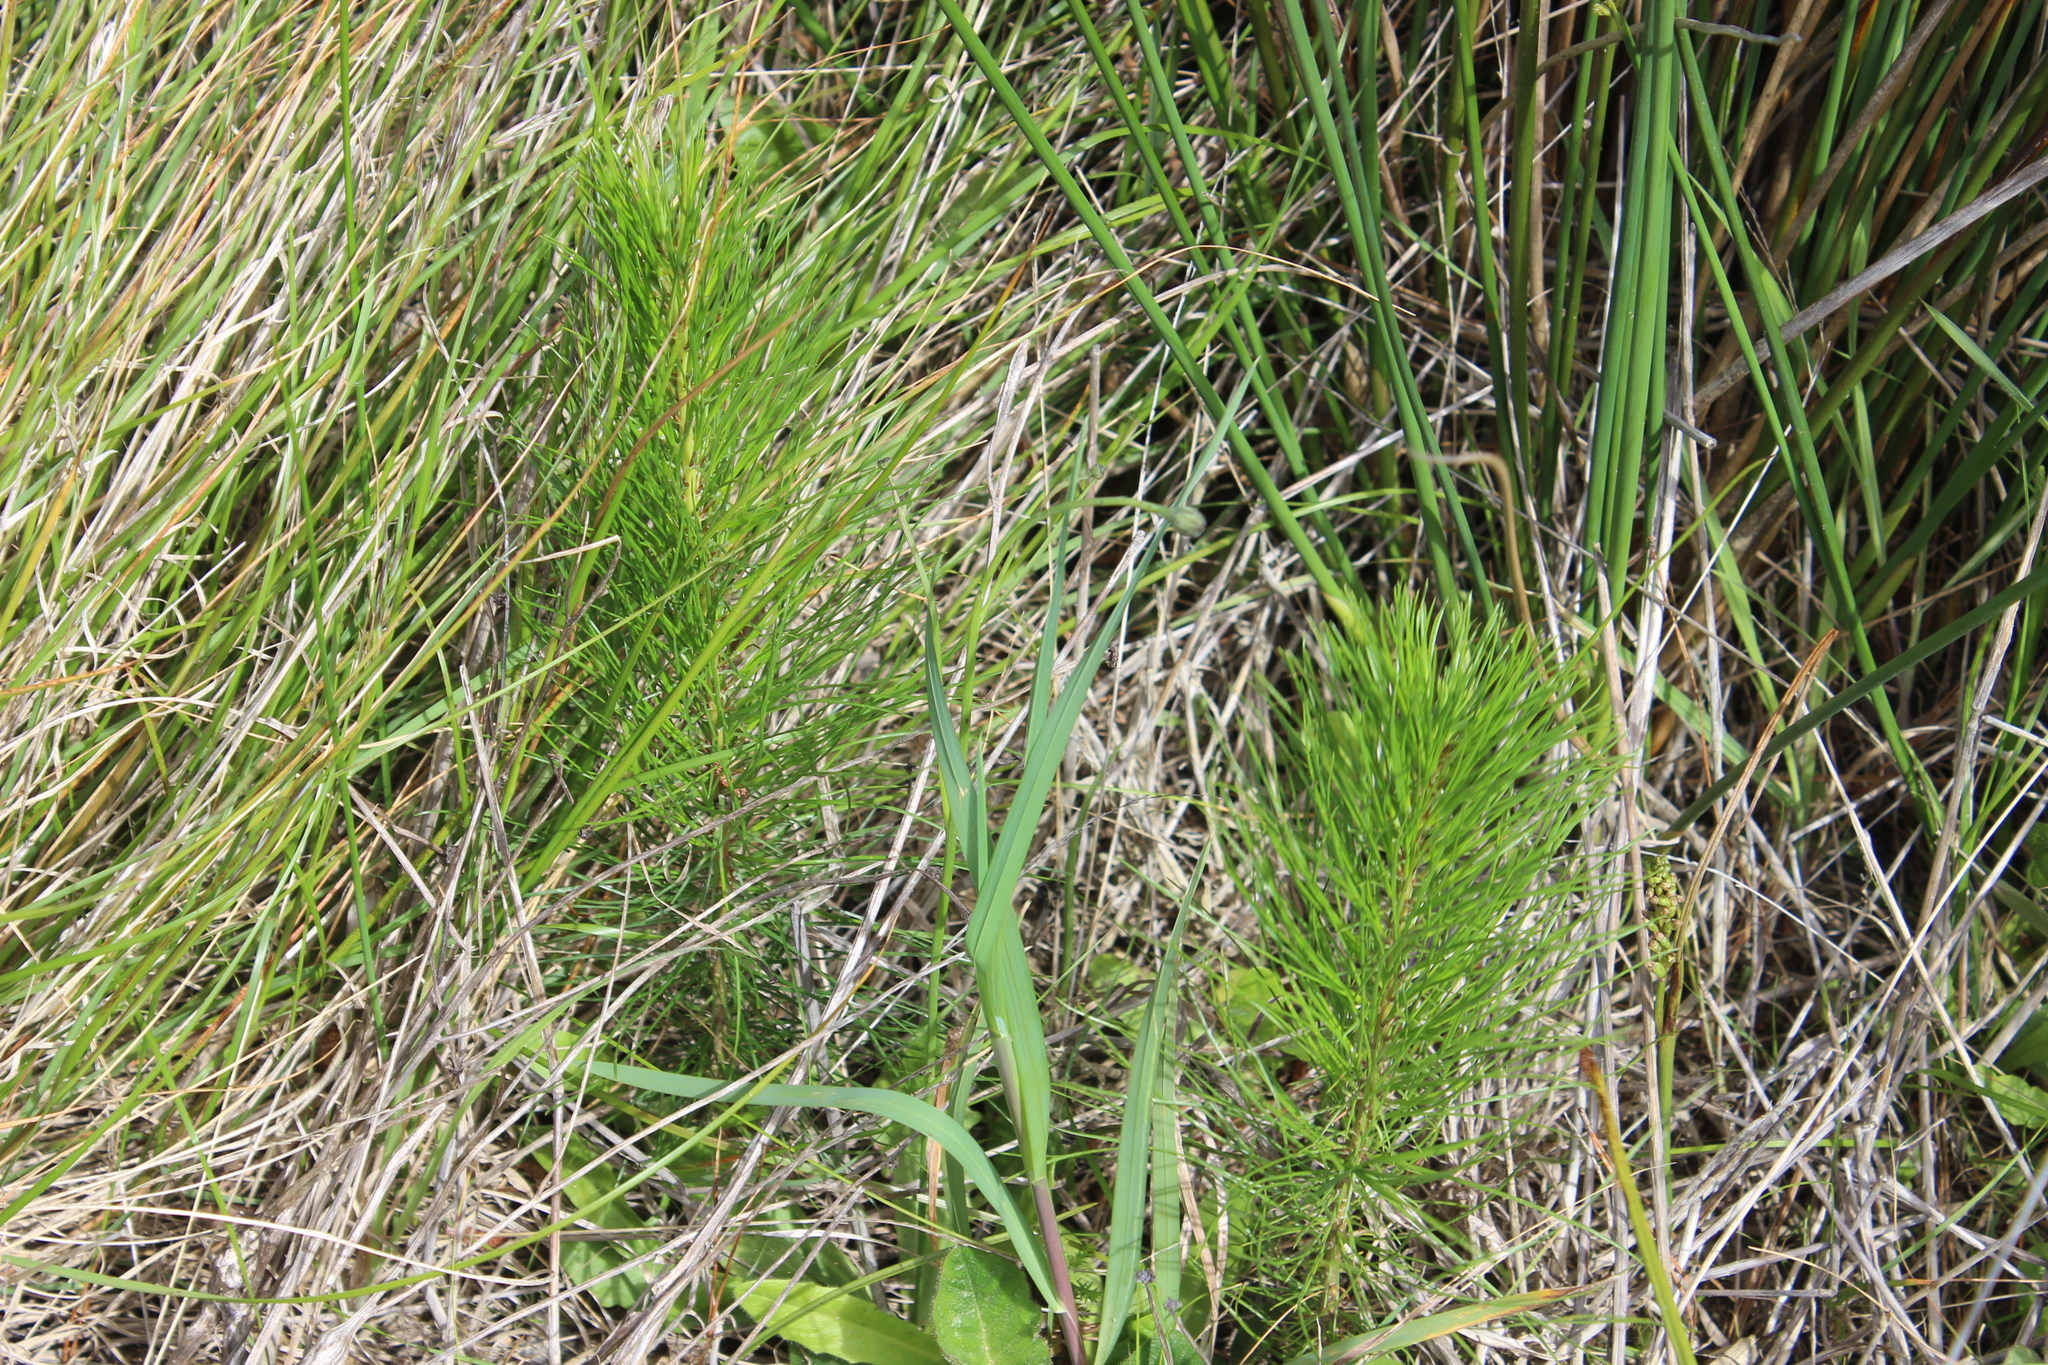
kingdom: Plantae
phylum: Tracheophyta
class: Pinopsida
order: Pinales
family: Pinaceae
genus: Pinus
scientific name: Pinus radiata
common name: Monterey pine
